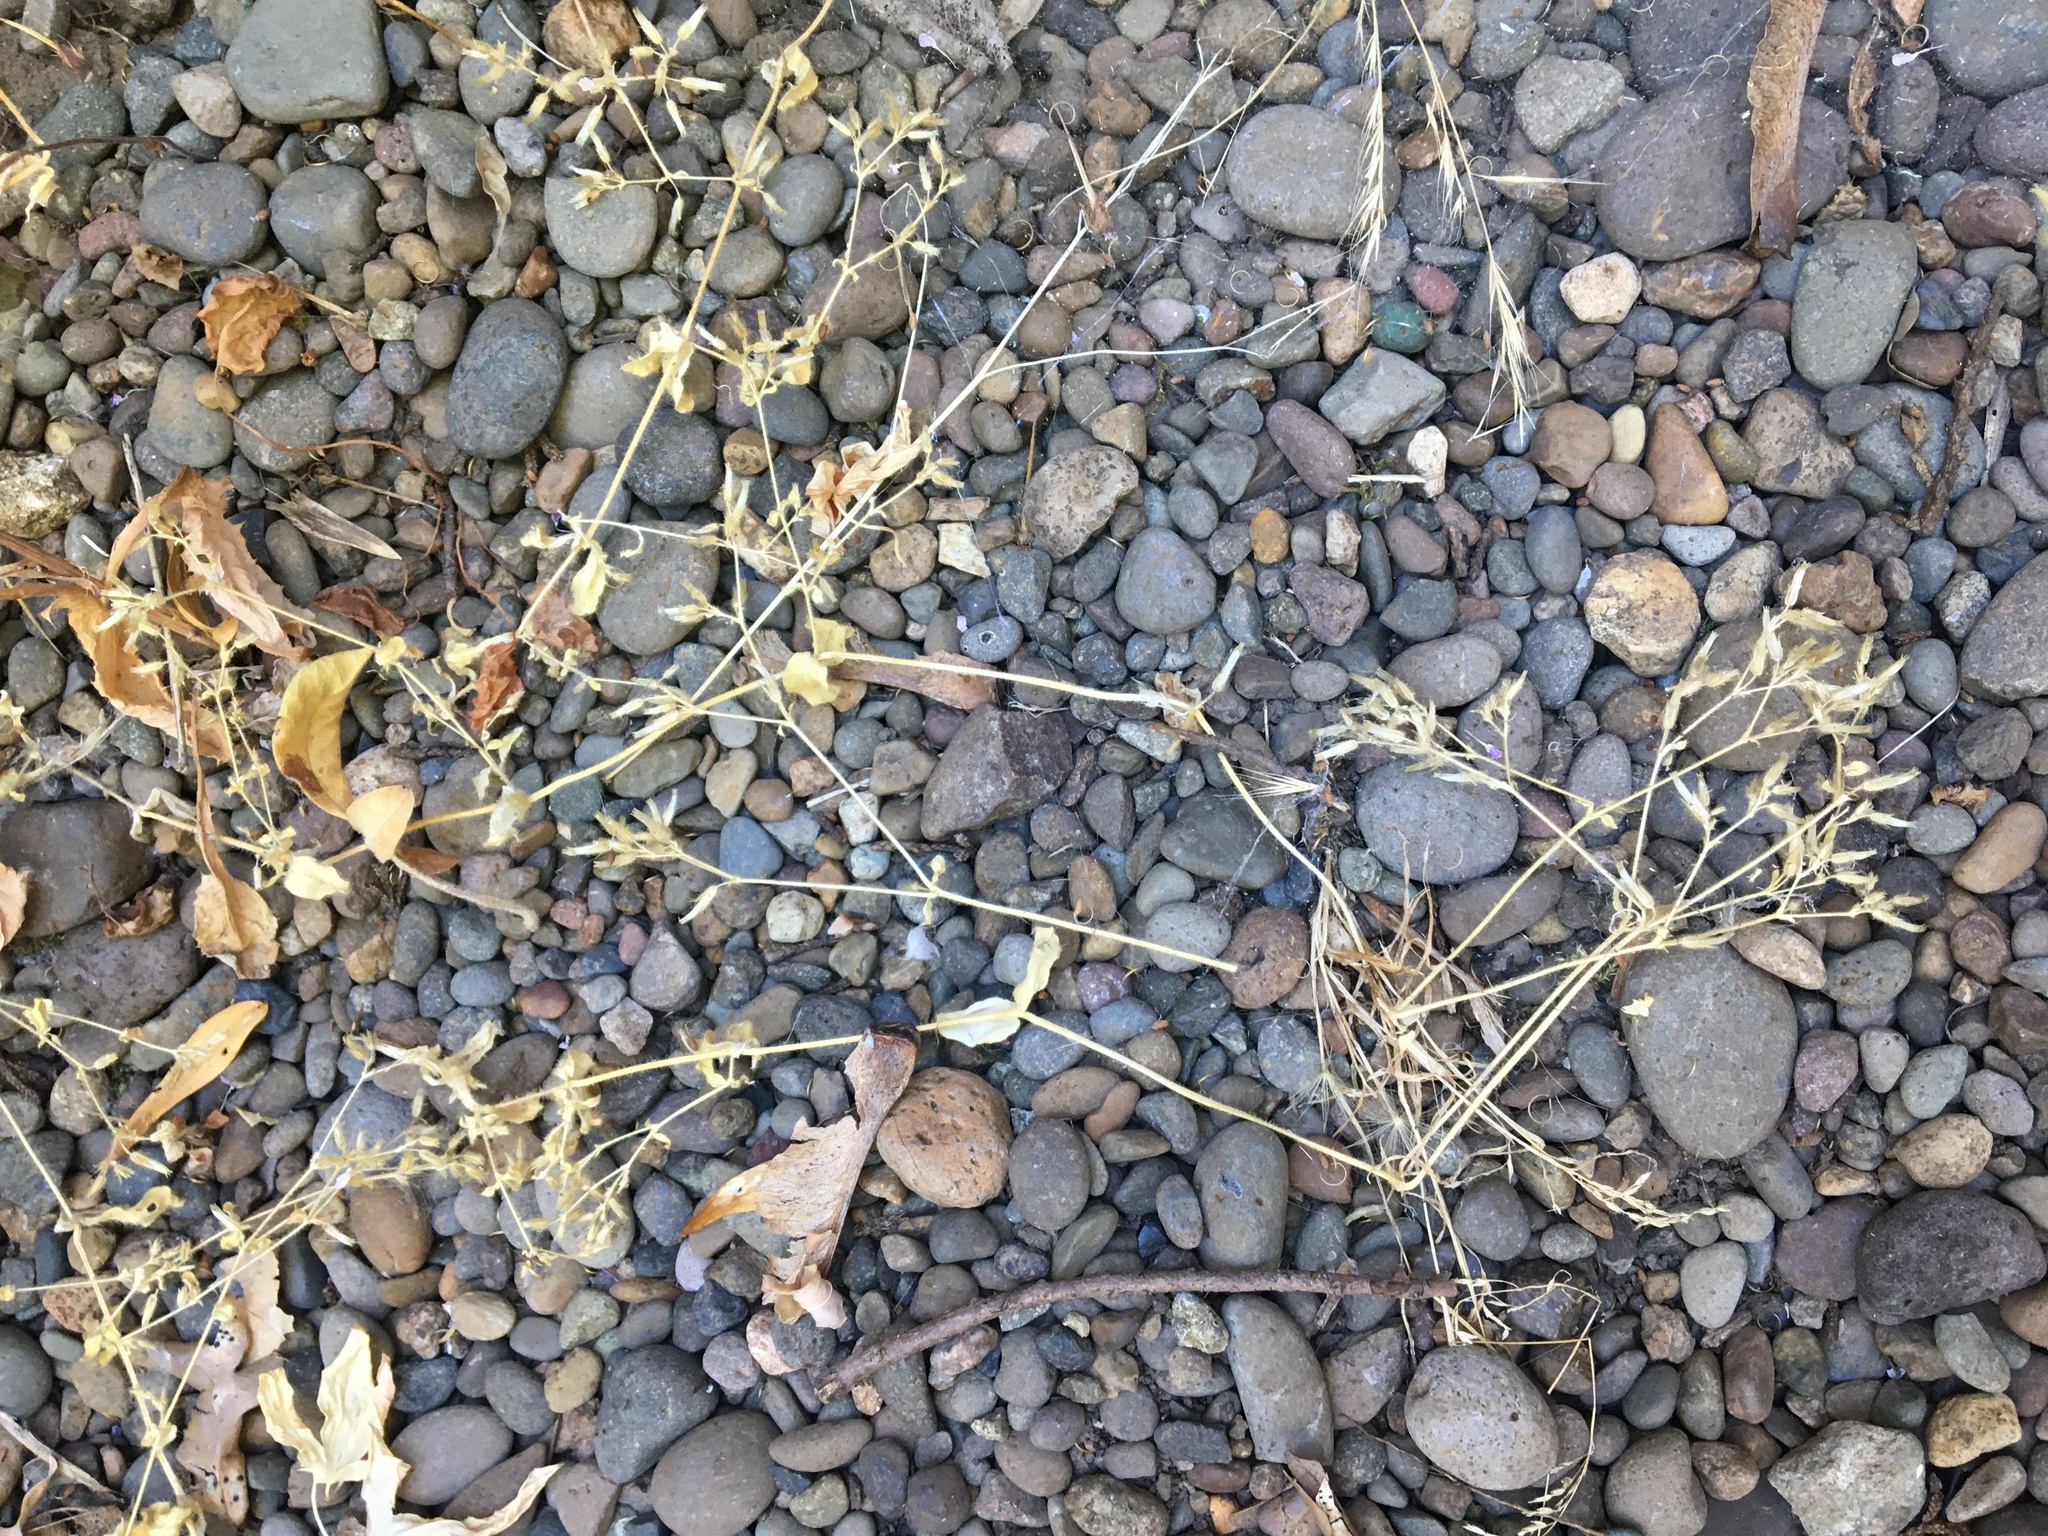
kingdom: Plantae
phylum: Tracheophyta
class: Magnoliopsida
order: Caryophyllales
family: Caryophyllaceae
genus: Stellaria
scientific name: Stellaria media
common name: Common chickweed
